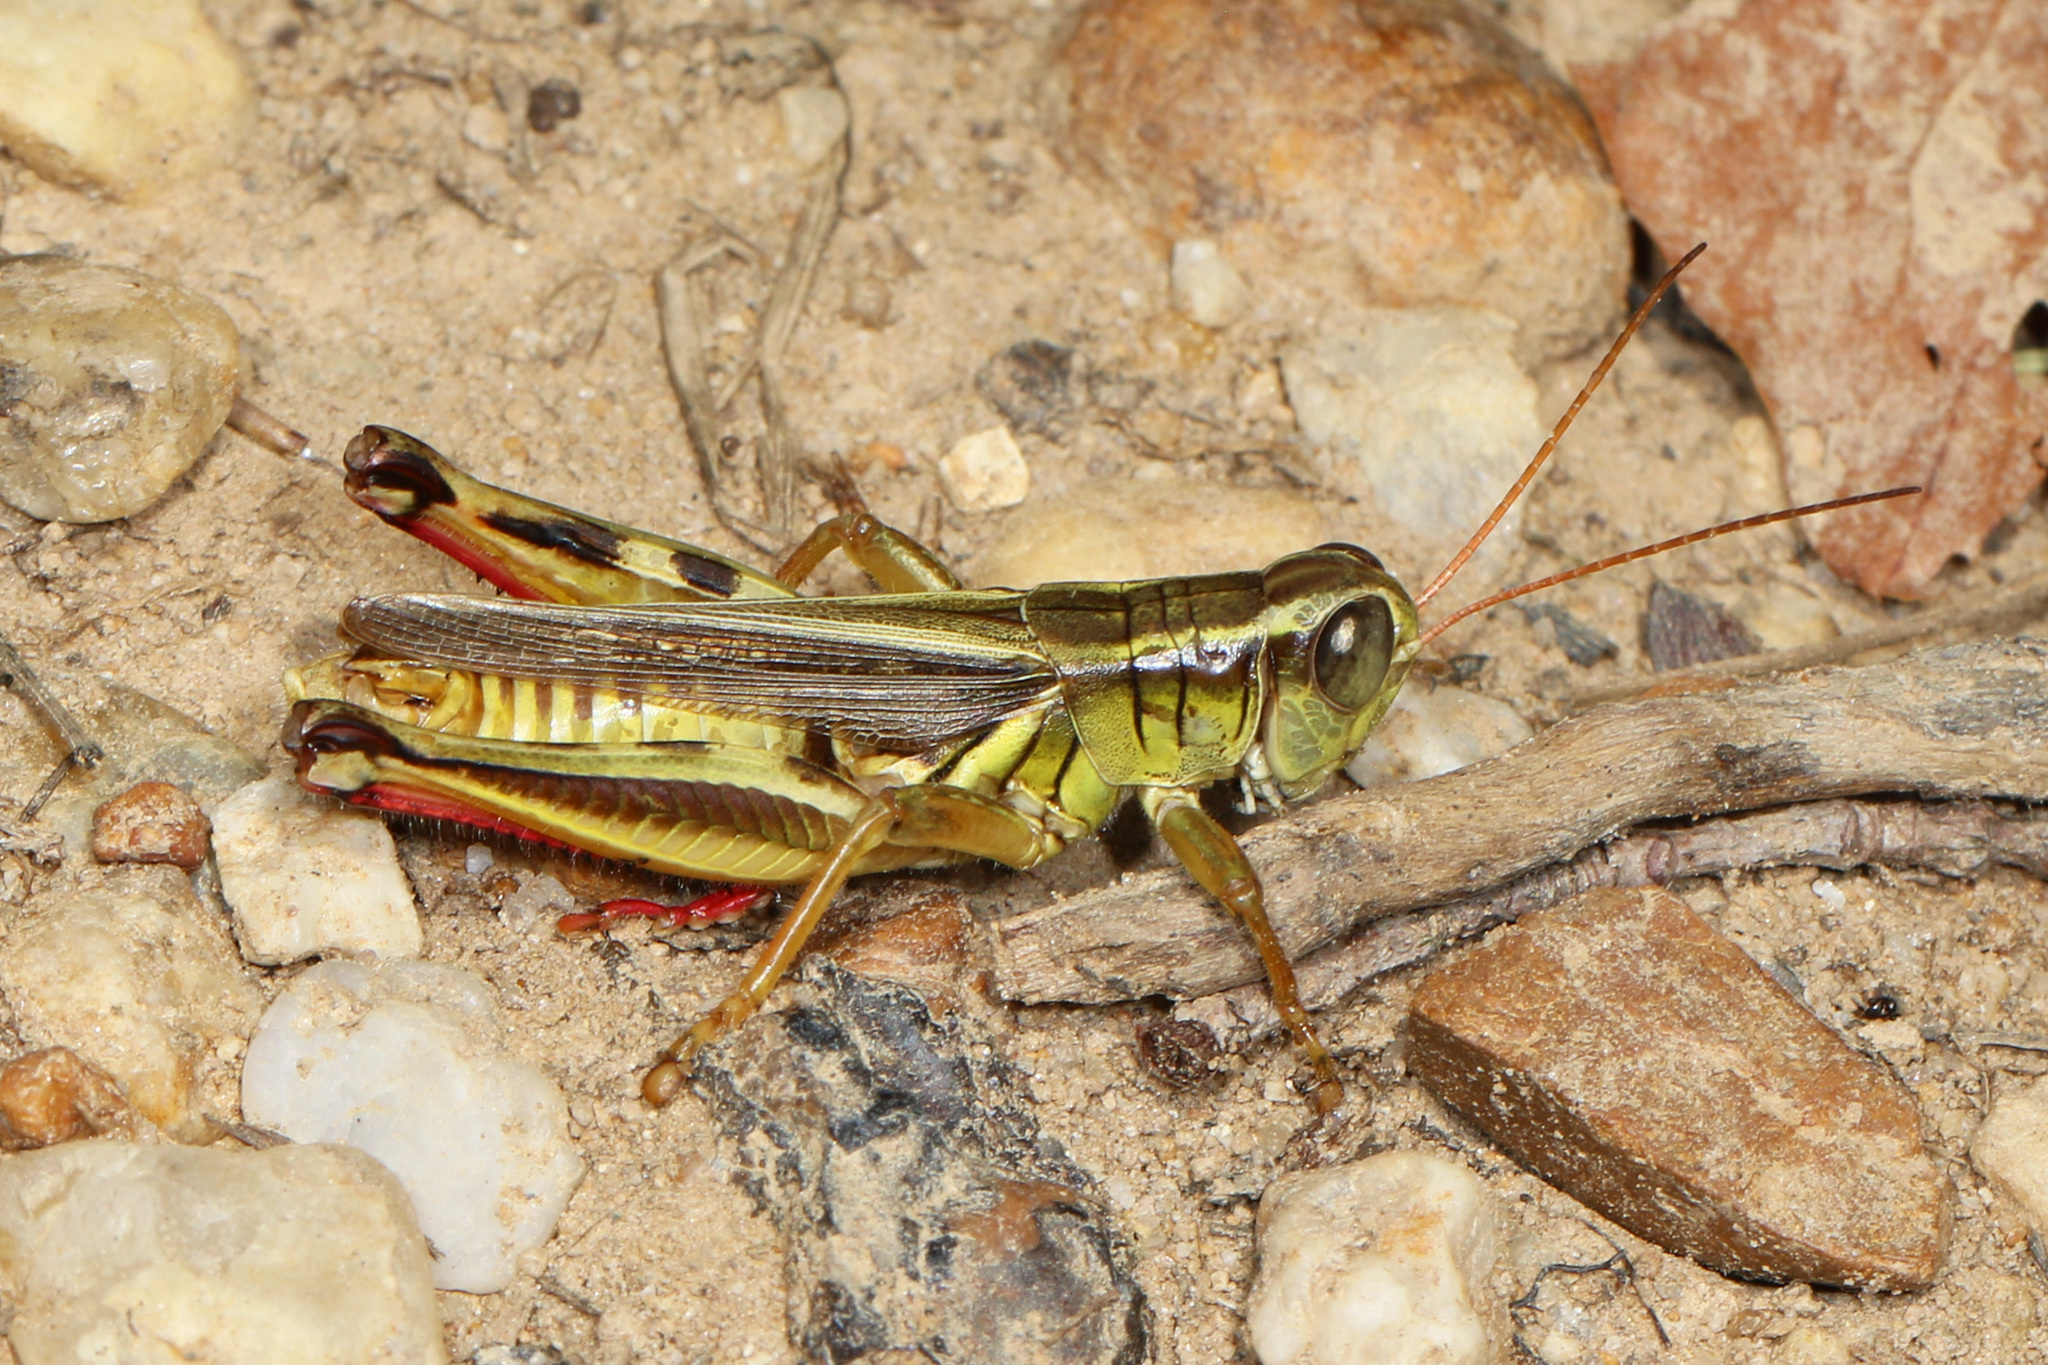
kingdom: Animalia
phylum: Arthropoda
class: Insecta
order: Orthoptera
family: Acrididae
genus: Melanoplus
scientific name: Melanoplus bivittatus
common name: Two-striped grasshopper
